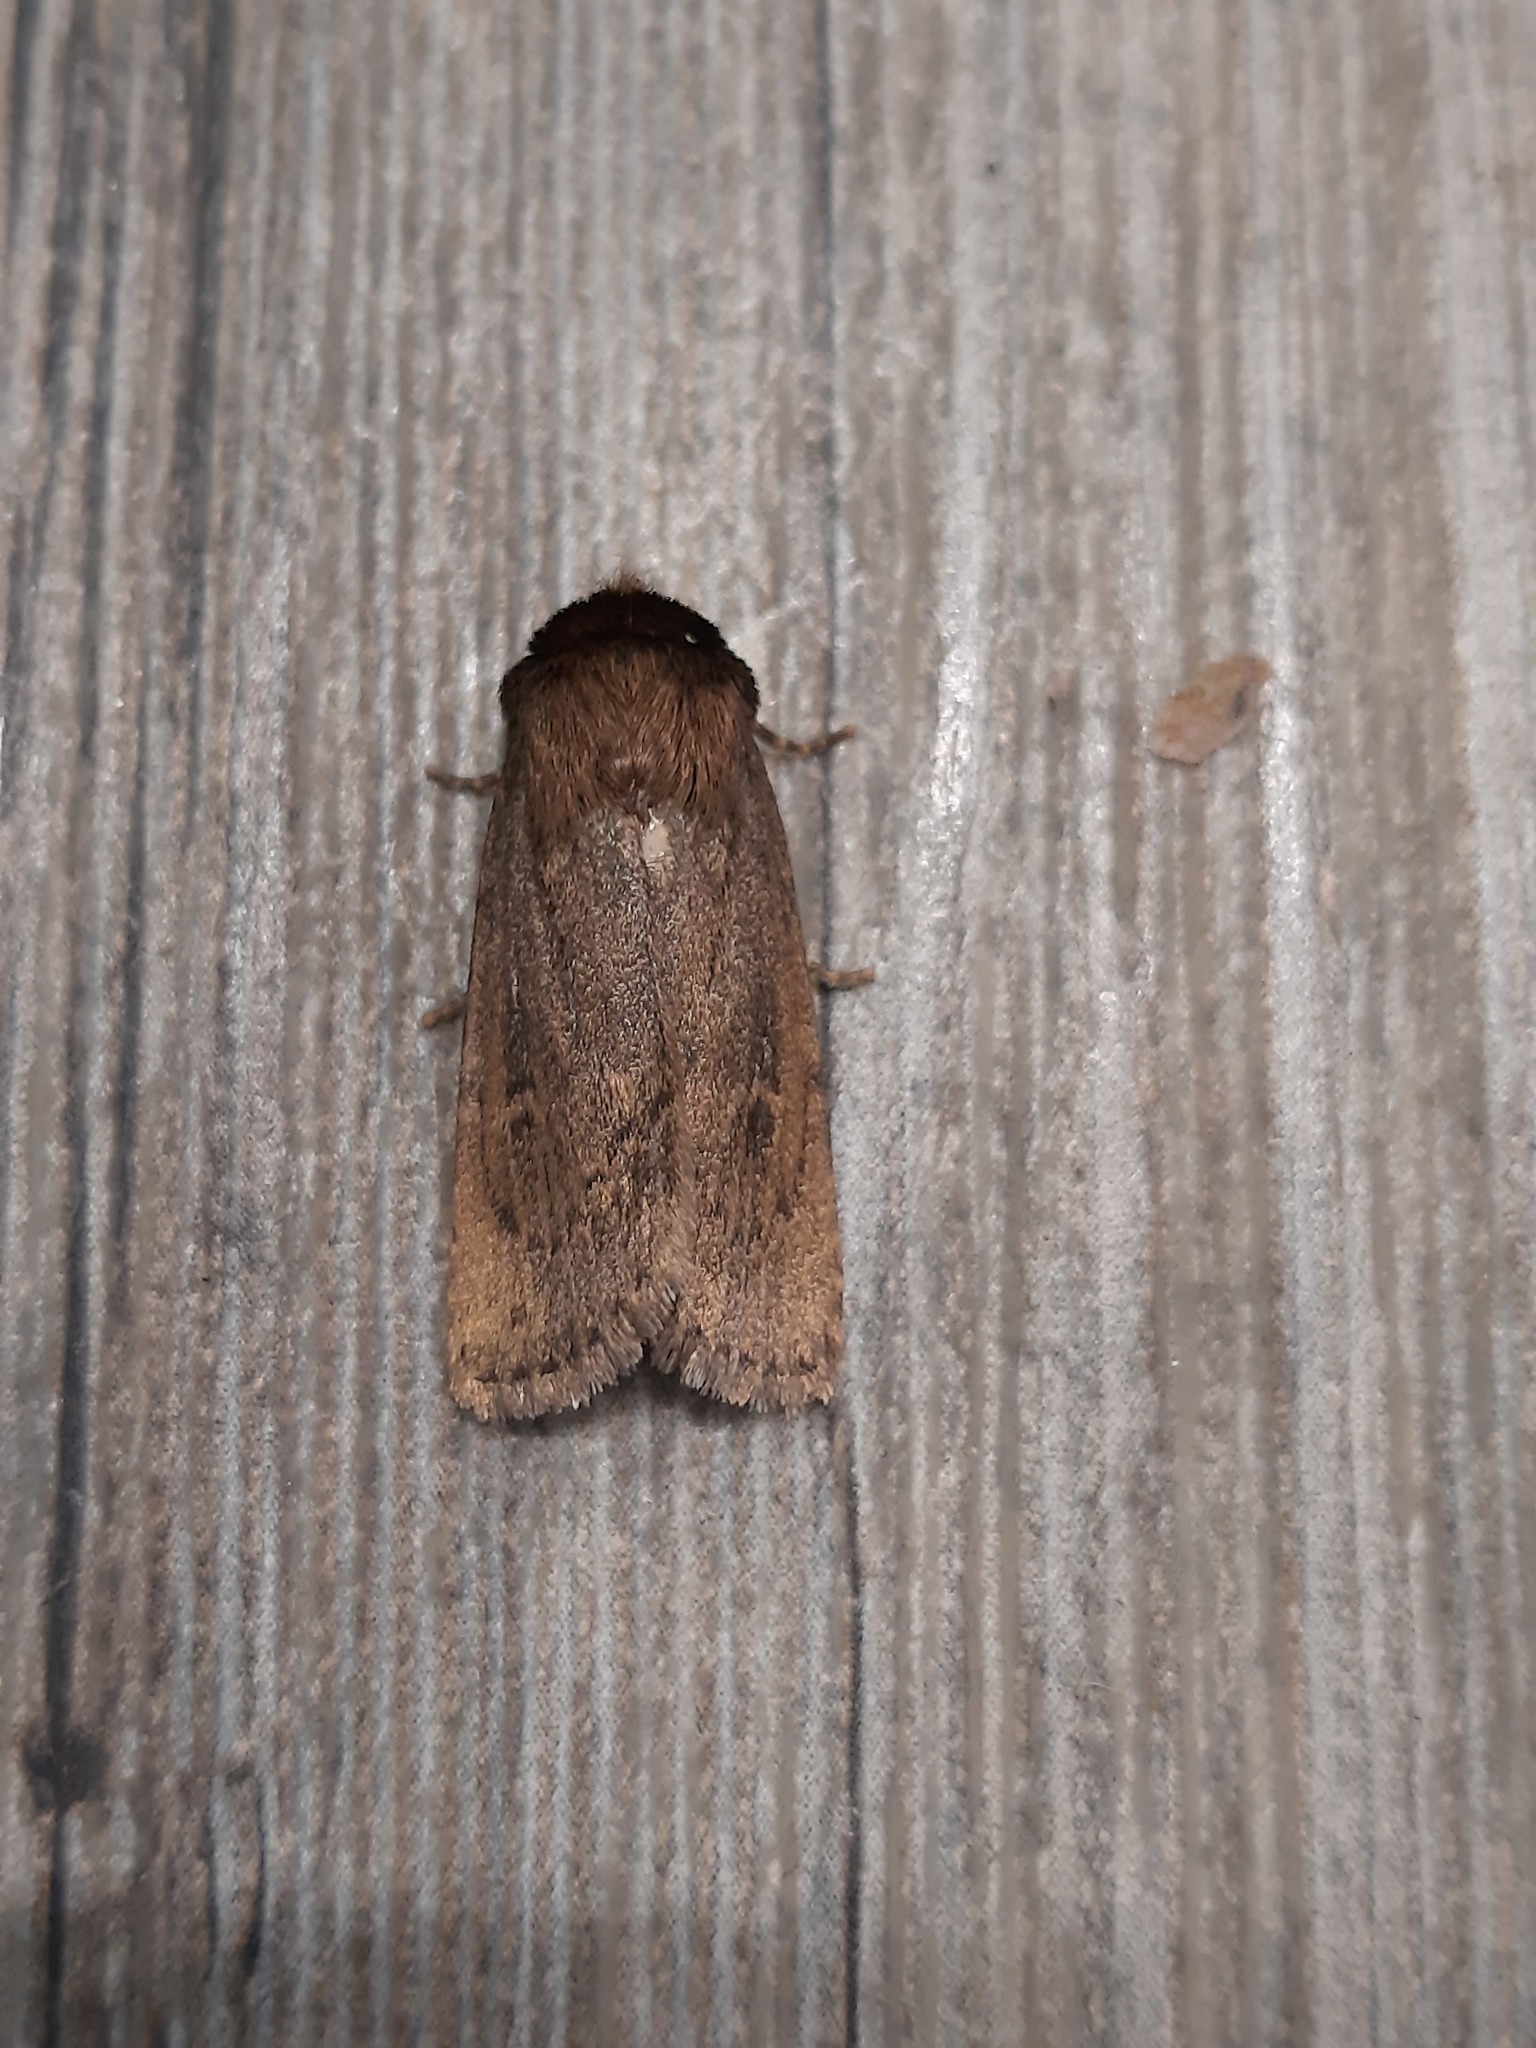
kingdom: Animalia
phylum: Arthropoda
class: Insecta
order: Lepidoptera
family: Noctuidae
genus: Bityla
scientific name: Bityla defigurata
